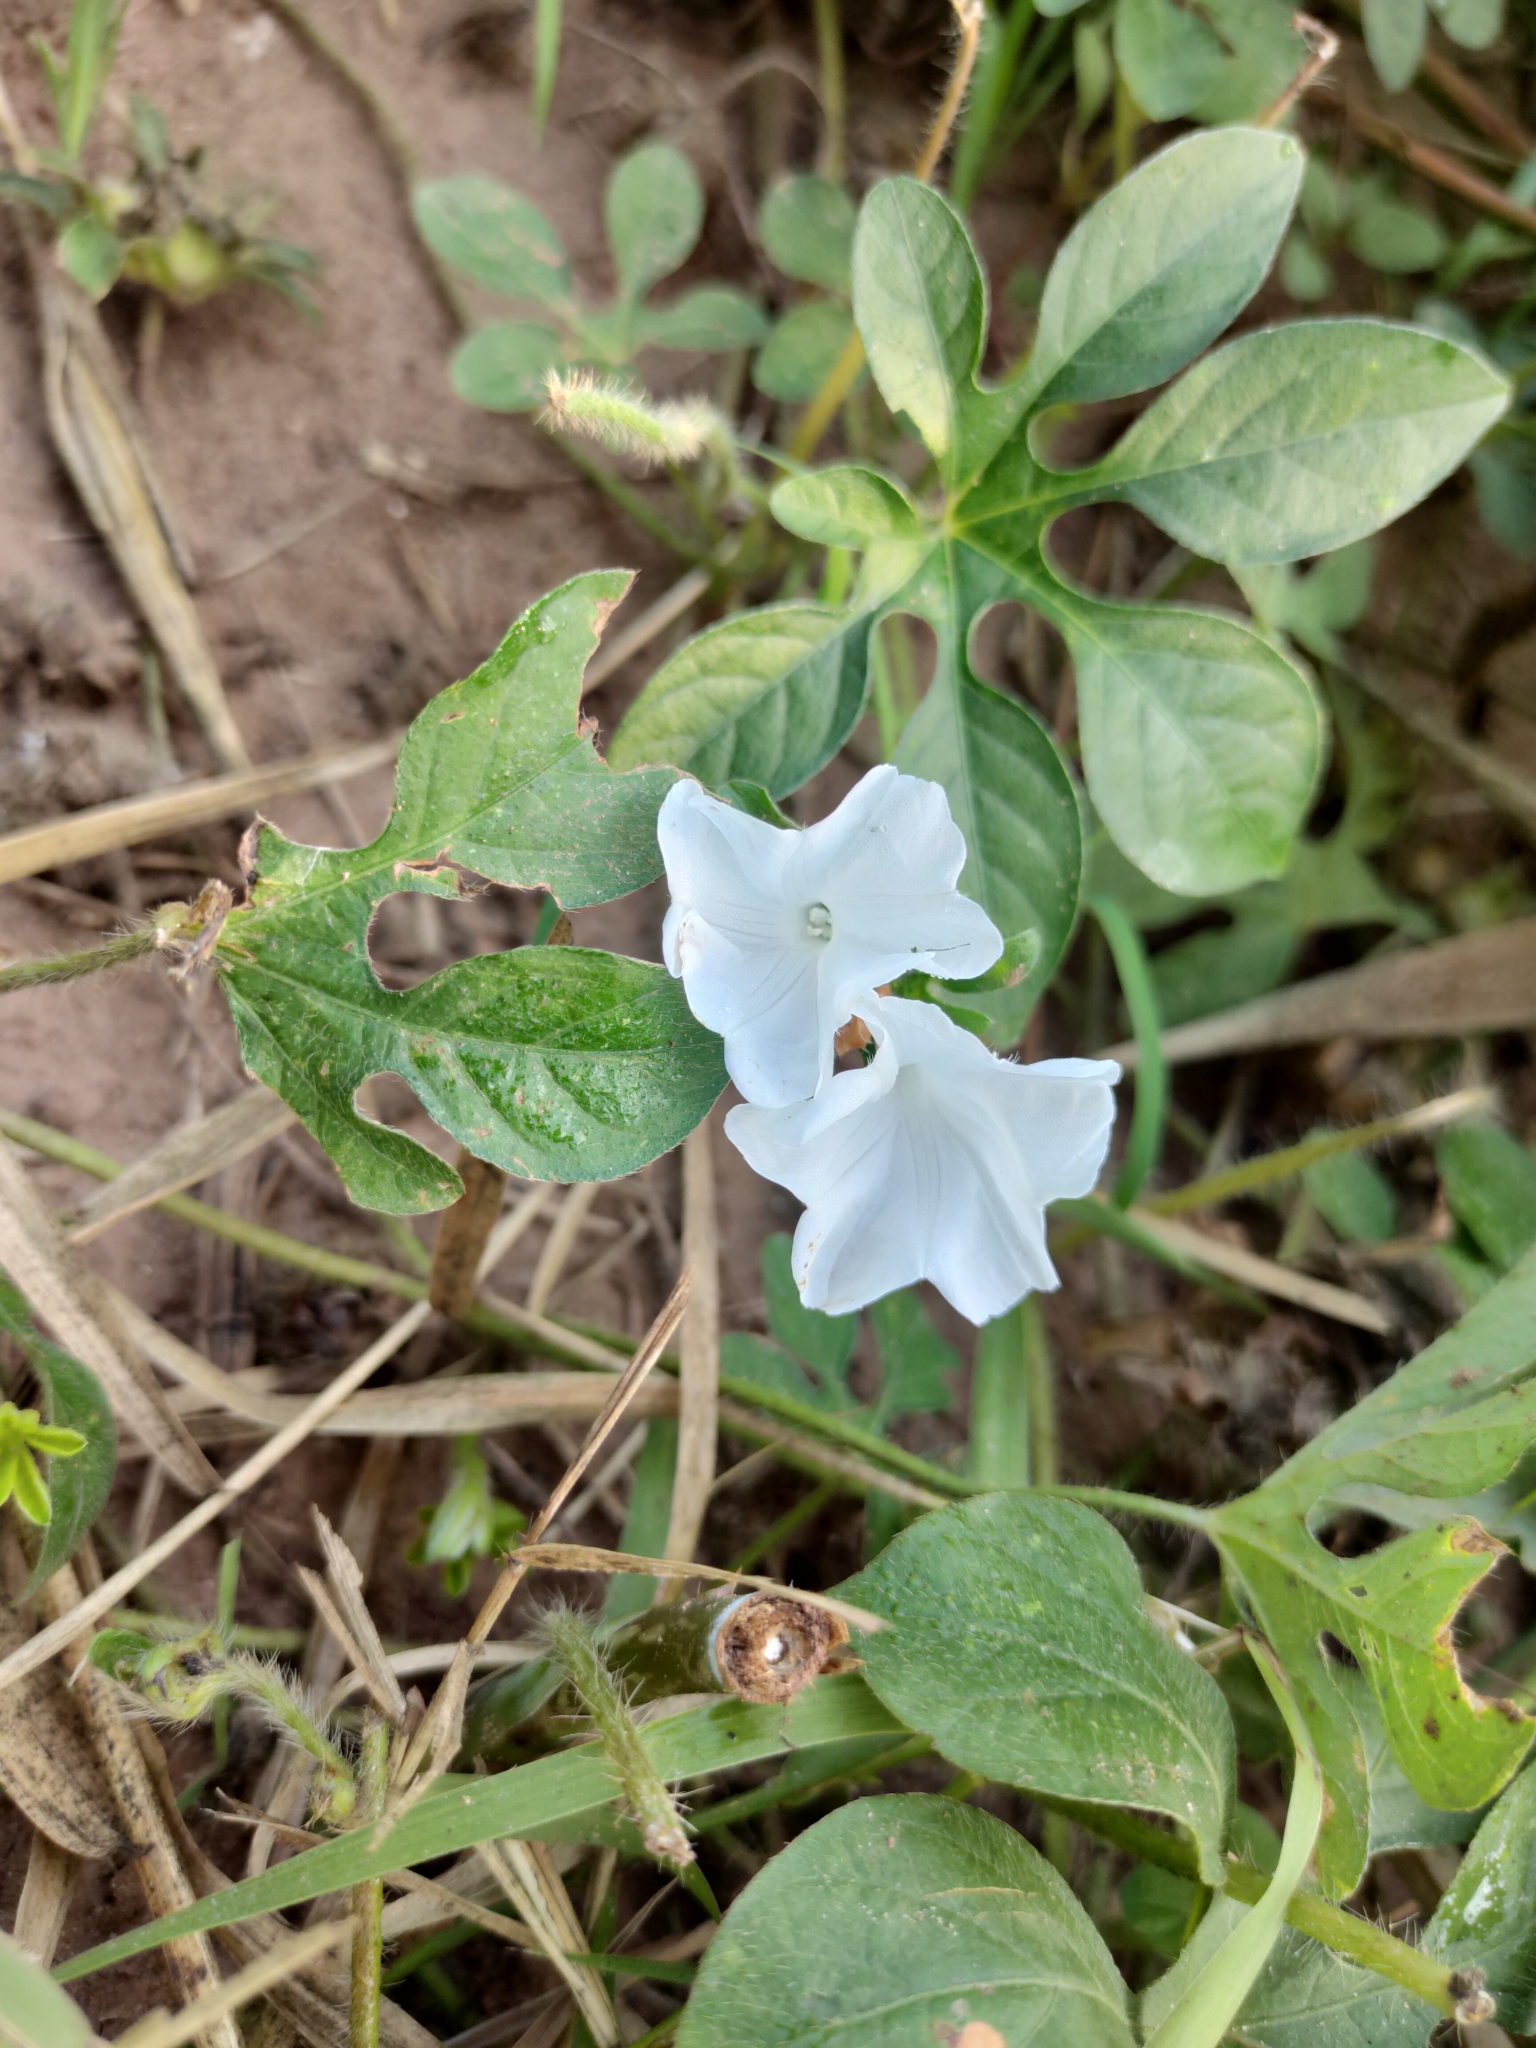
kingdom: Plantae
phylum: Tracheophyta
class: Magnoliopsida
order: Solanales
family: Convolvulaceae
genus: Ipomoea
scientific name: Ipomoea pes-tigridis
